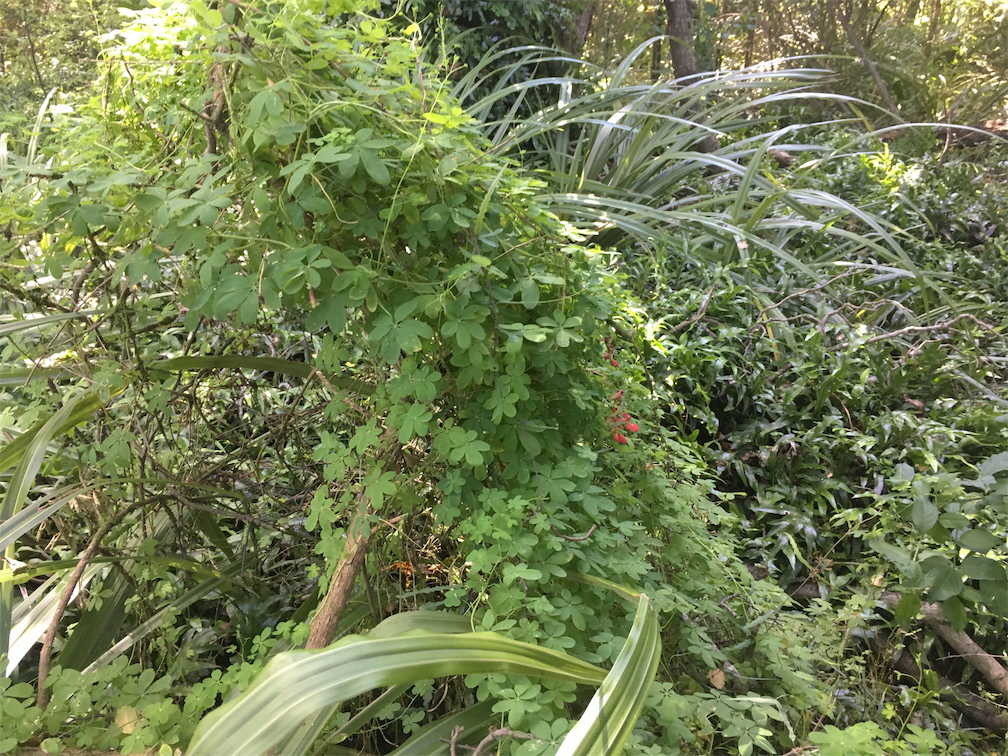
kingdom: Plantae
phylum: Tracheophyta
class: Magnoliopsida
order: Brassicales
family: Tropaeolaceae
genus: Tropaeolum
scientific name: Tropaeolum speciosum
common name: Flame nasturtium
